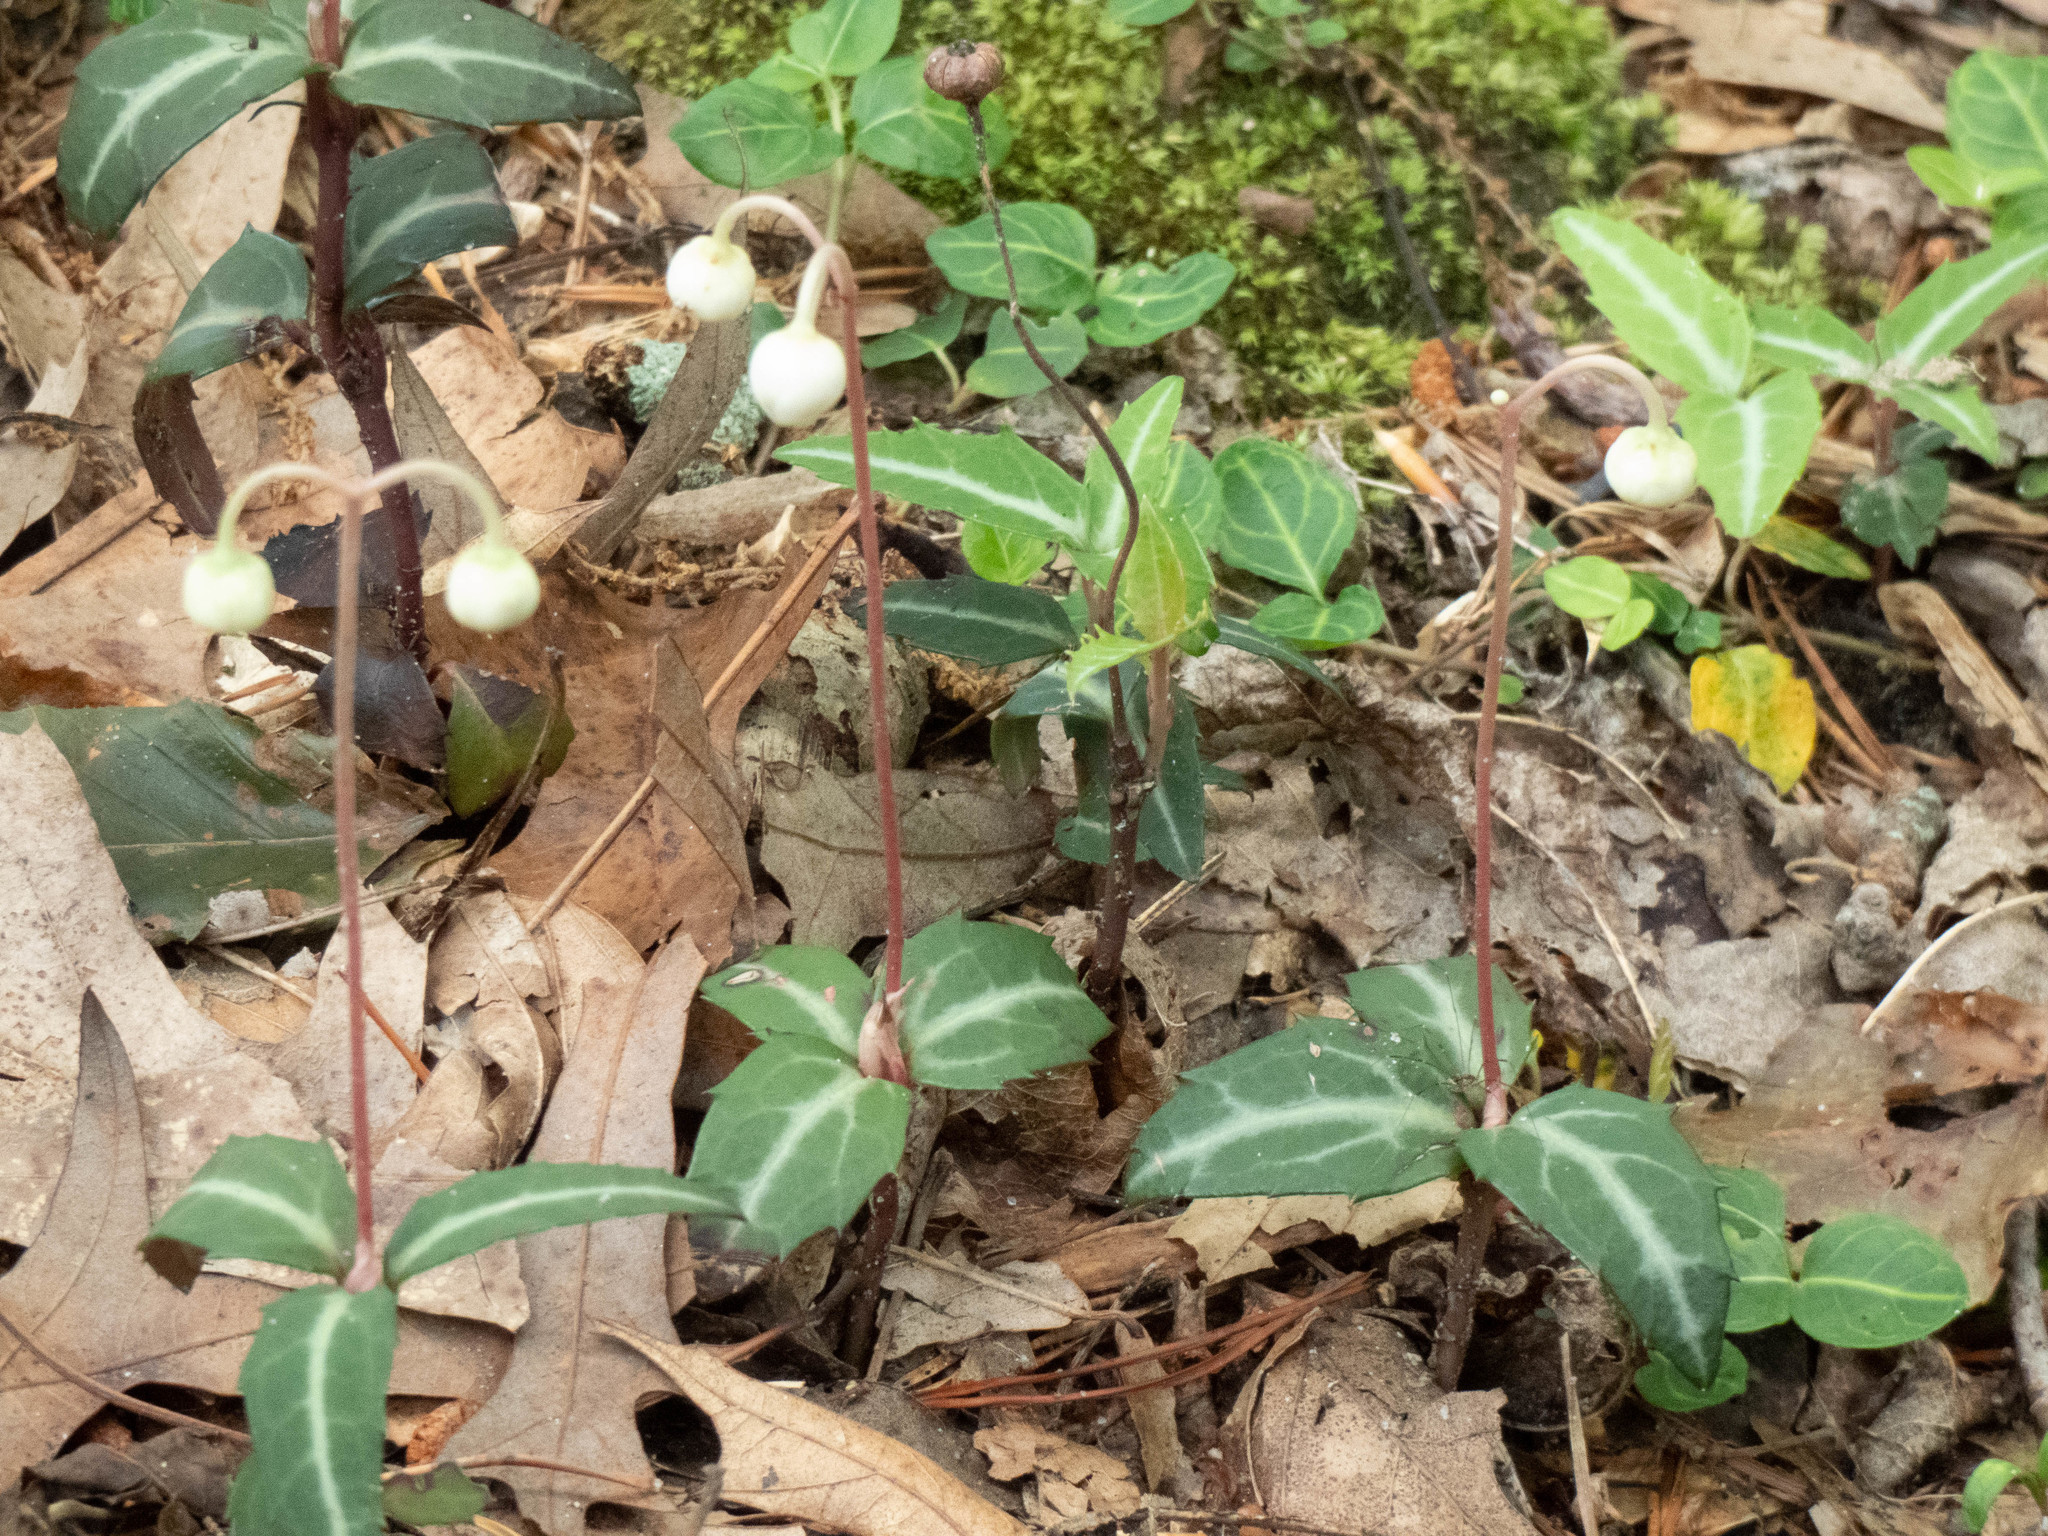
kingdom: Plantae
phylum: Tracheophyta
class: Magnoliopsida
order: Ericales
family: Ericaceae
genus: Chimaphila
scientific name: Chimaphila maculata
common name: Spotted pipsissewa
